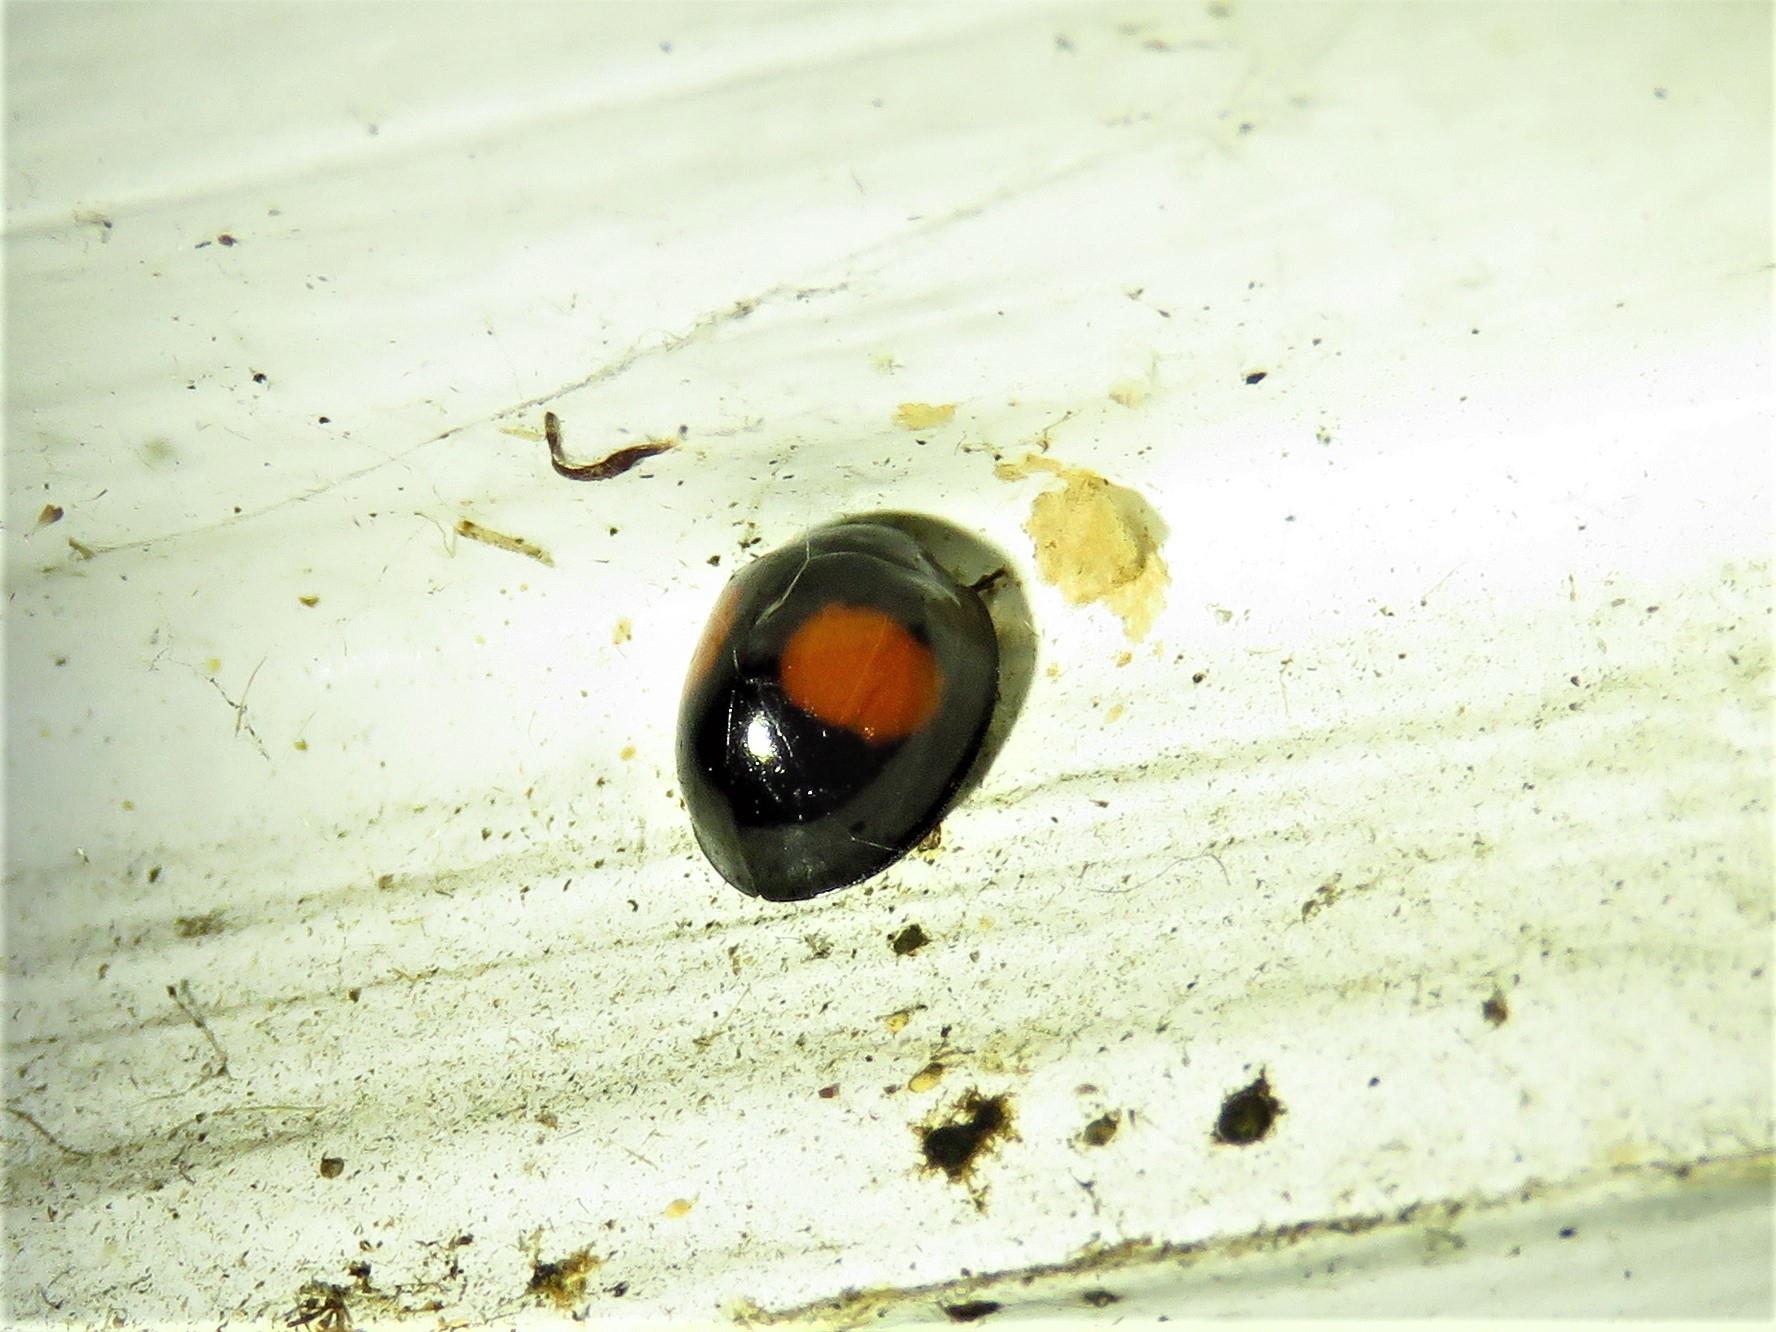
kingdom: Animalia
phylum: Arthropoda
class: Insecta
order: Coleoptera
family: Coccinellidae
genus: Chilocorus
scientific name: Chilocorus cacti
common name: Cactus lady beetle
